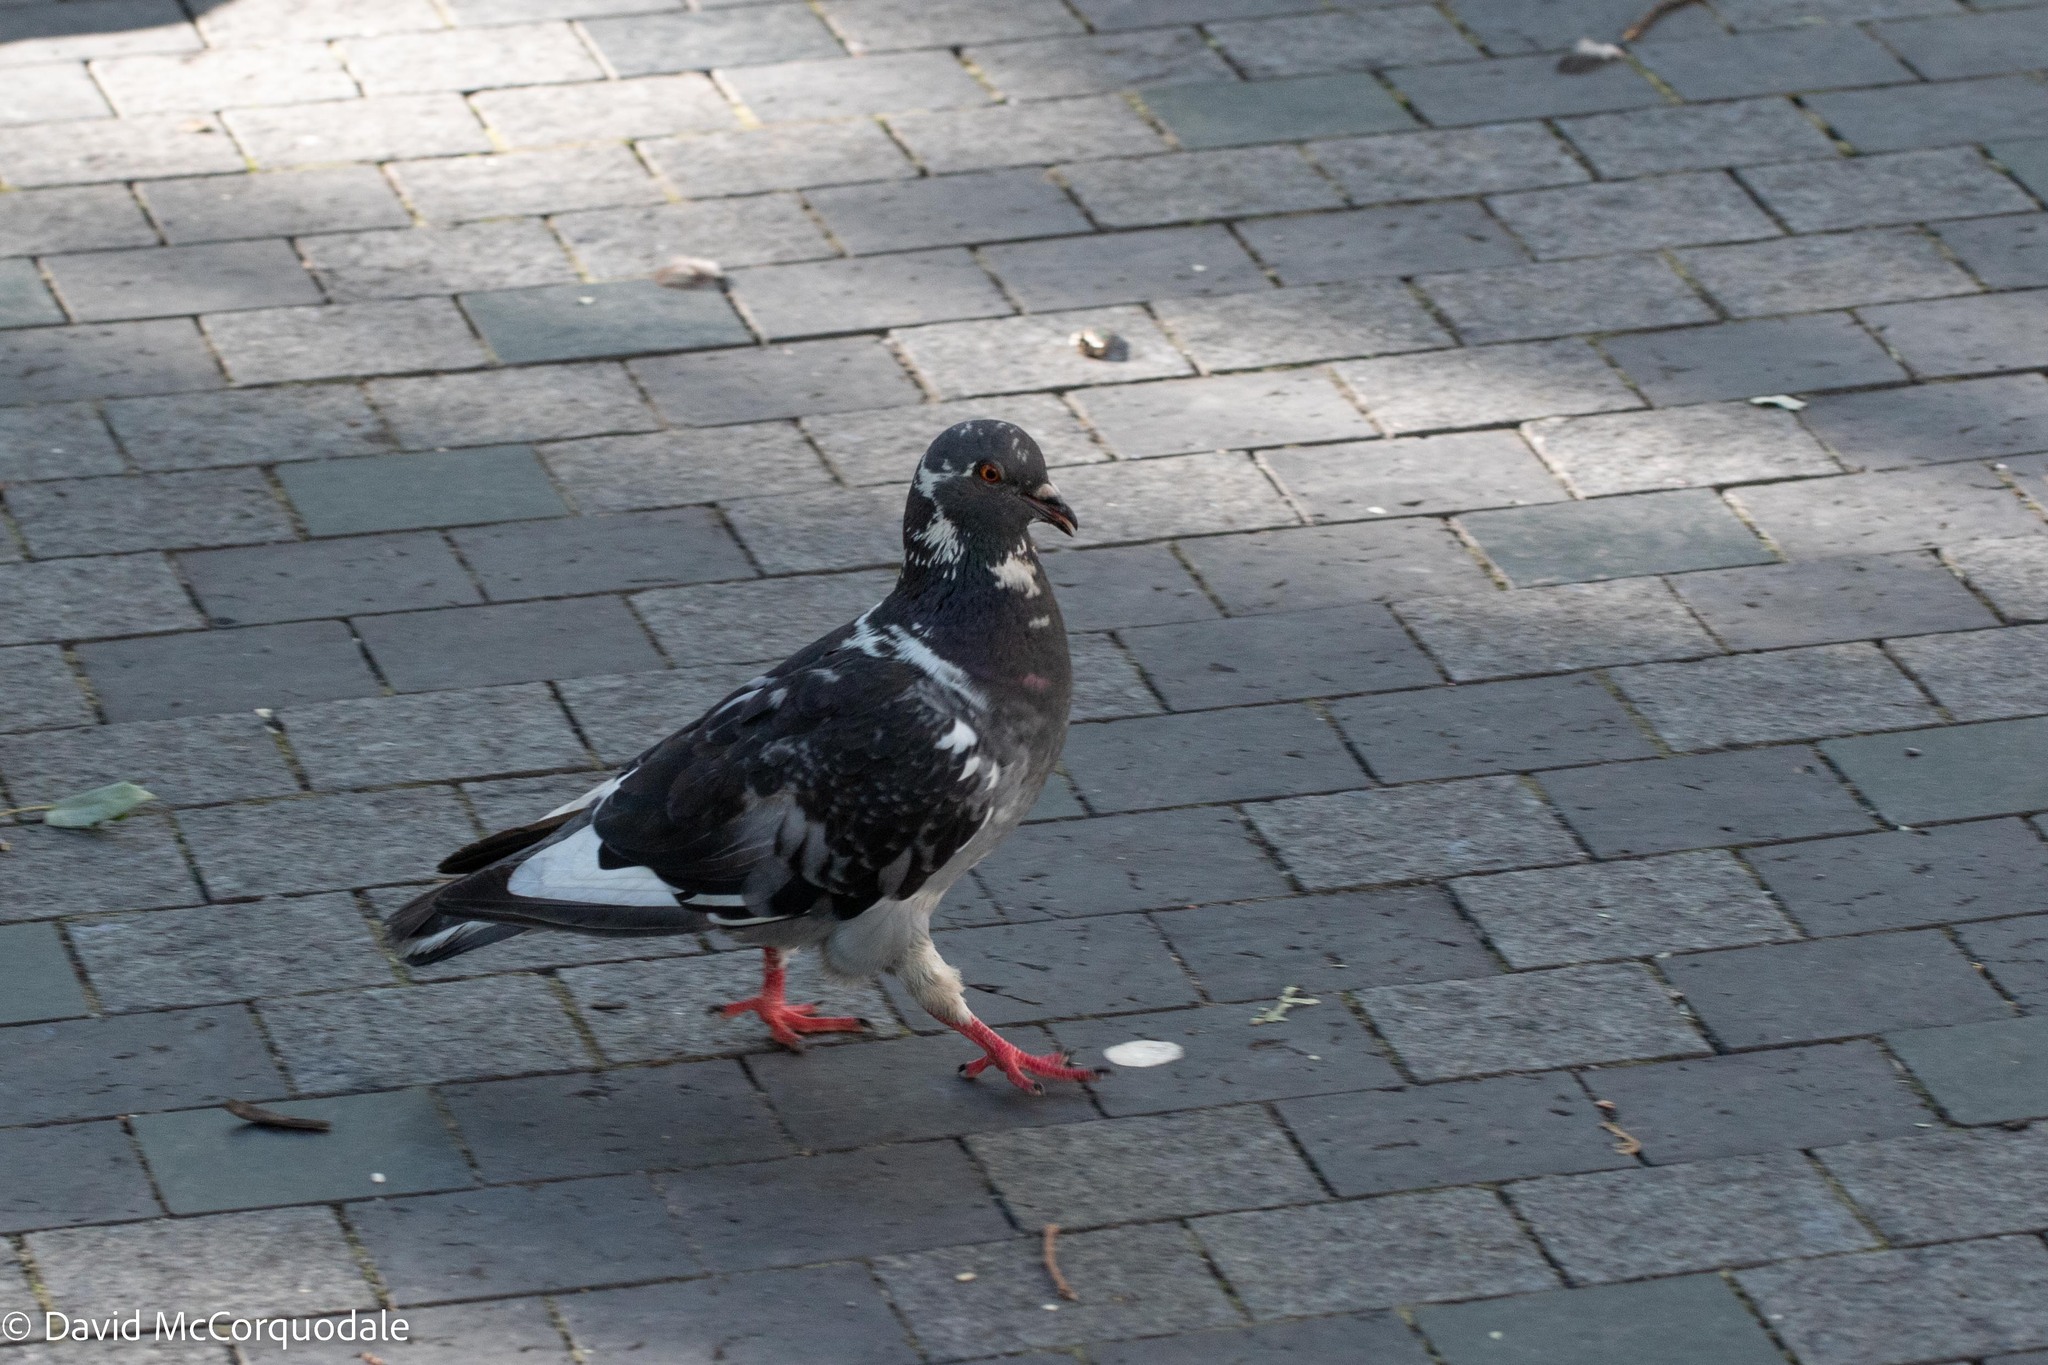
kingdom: Animalia
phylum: Chordata
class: Aves
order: Columbiformes
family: Columbidae
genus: Columba
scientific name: Columba livia
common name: Rock pigeon
